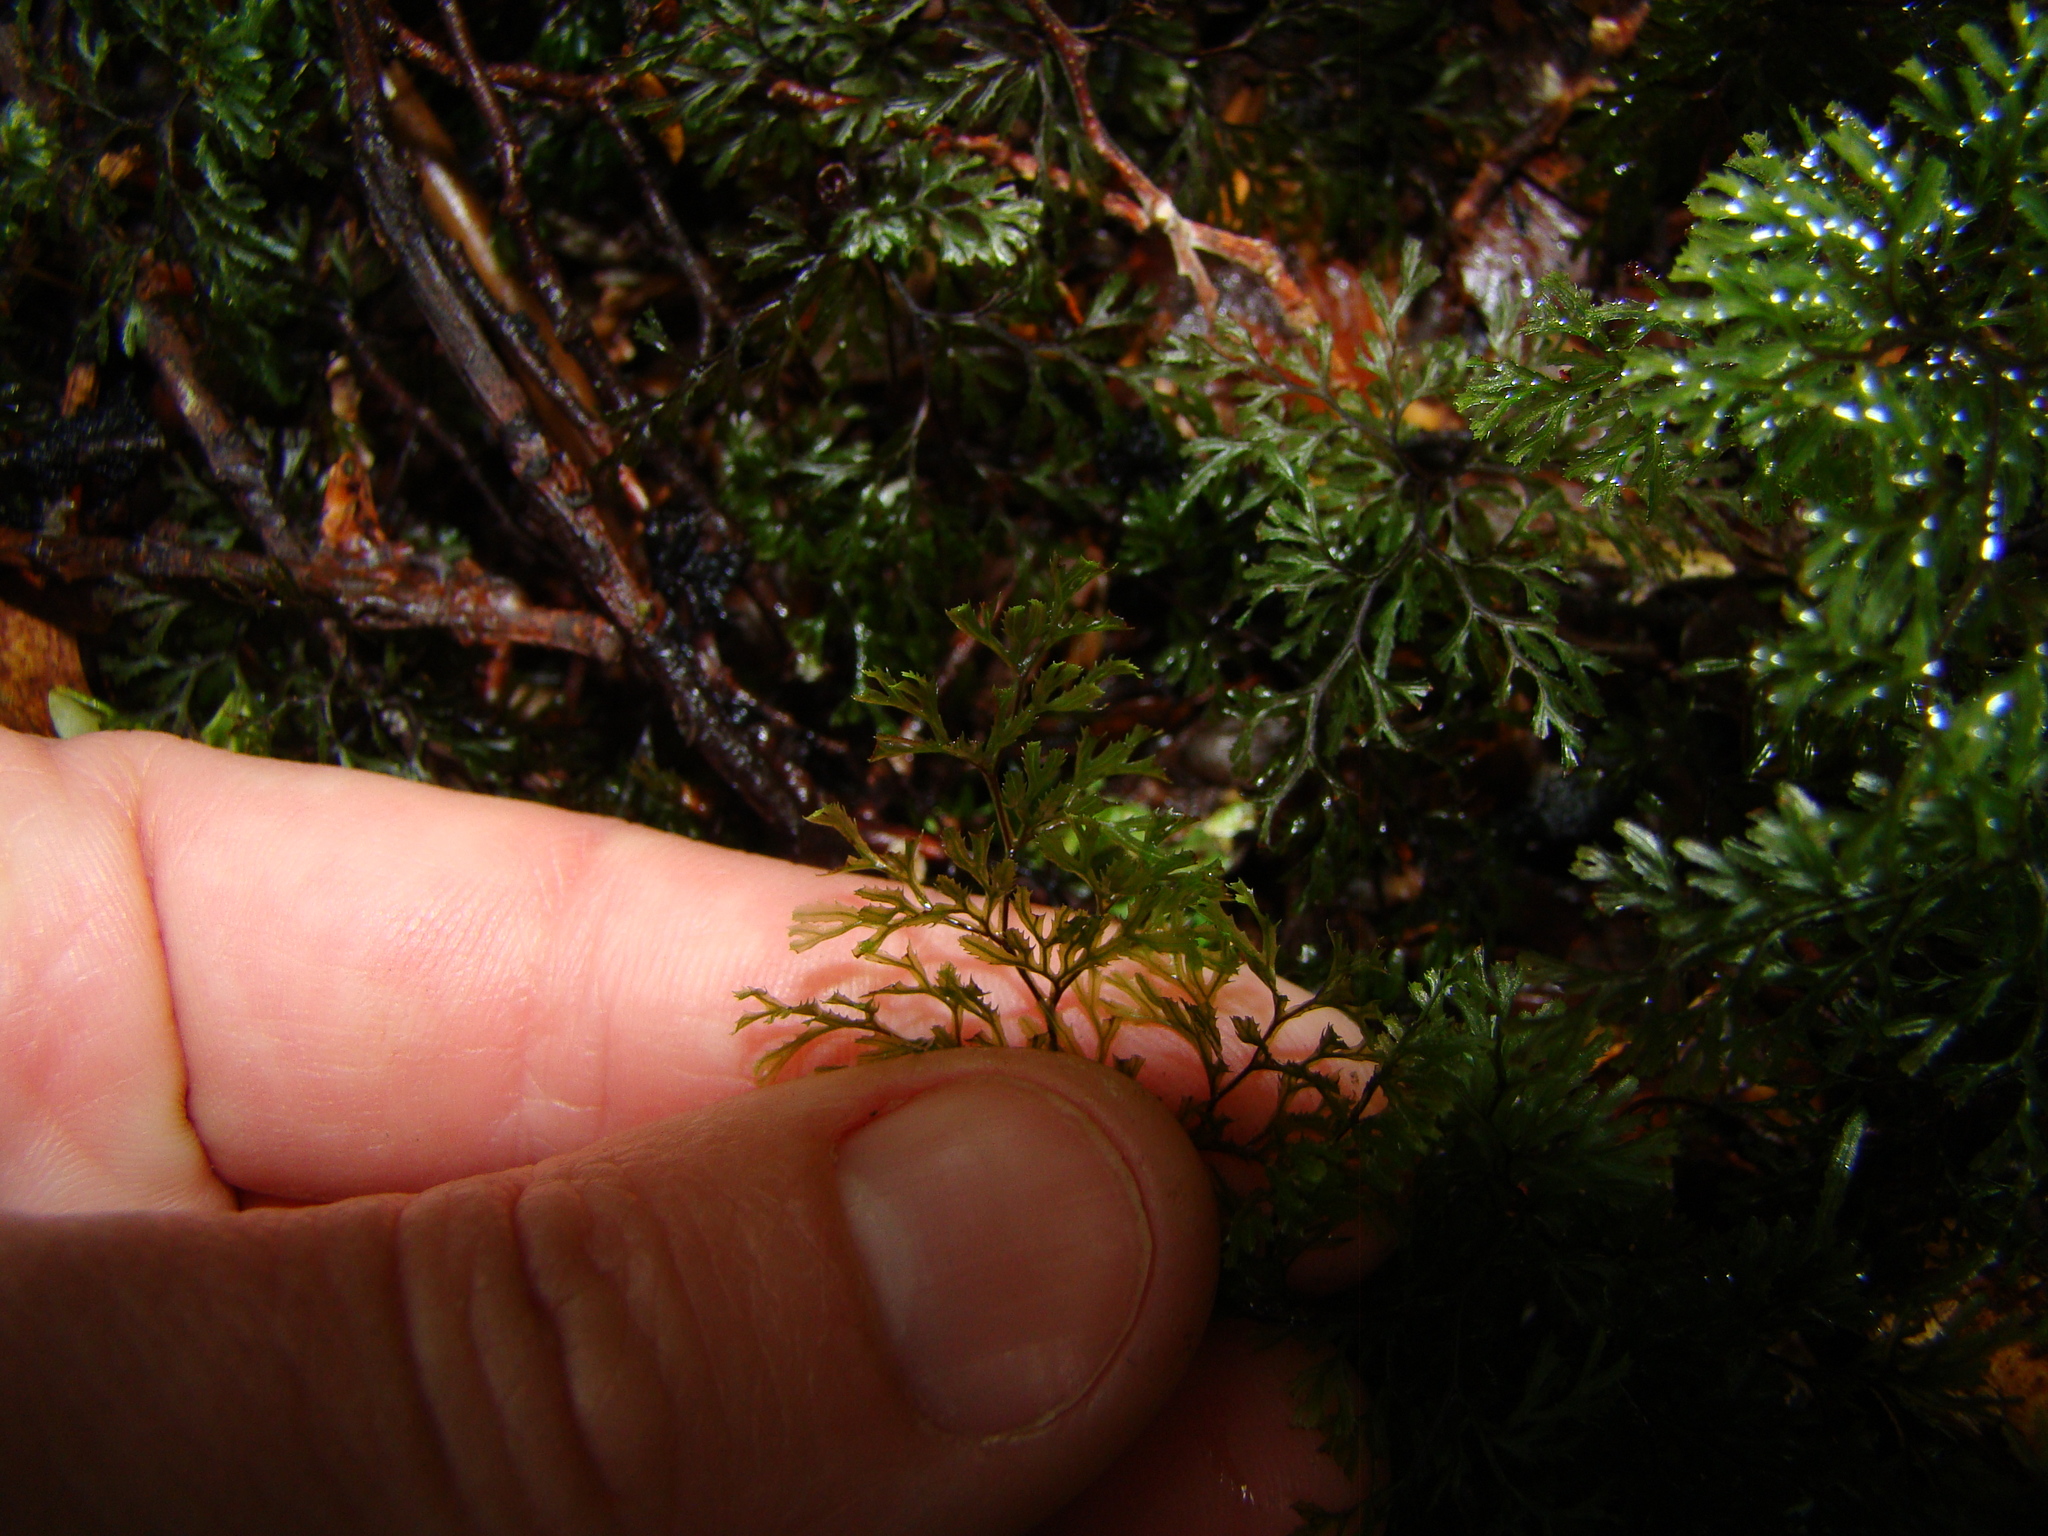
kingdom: Plantae
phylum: Tracheophyta
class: Polypodiopsida
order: Hymenophyllales
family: Hymenophyllaceae
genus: Hymenophyllum
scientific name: Hymenophyllum multifidum
